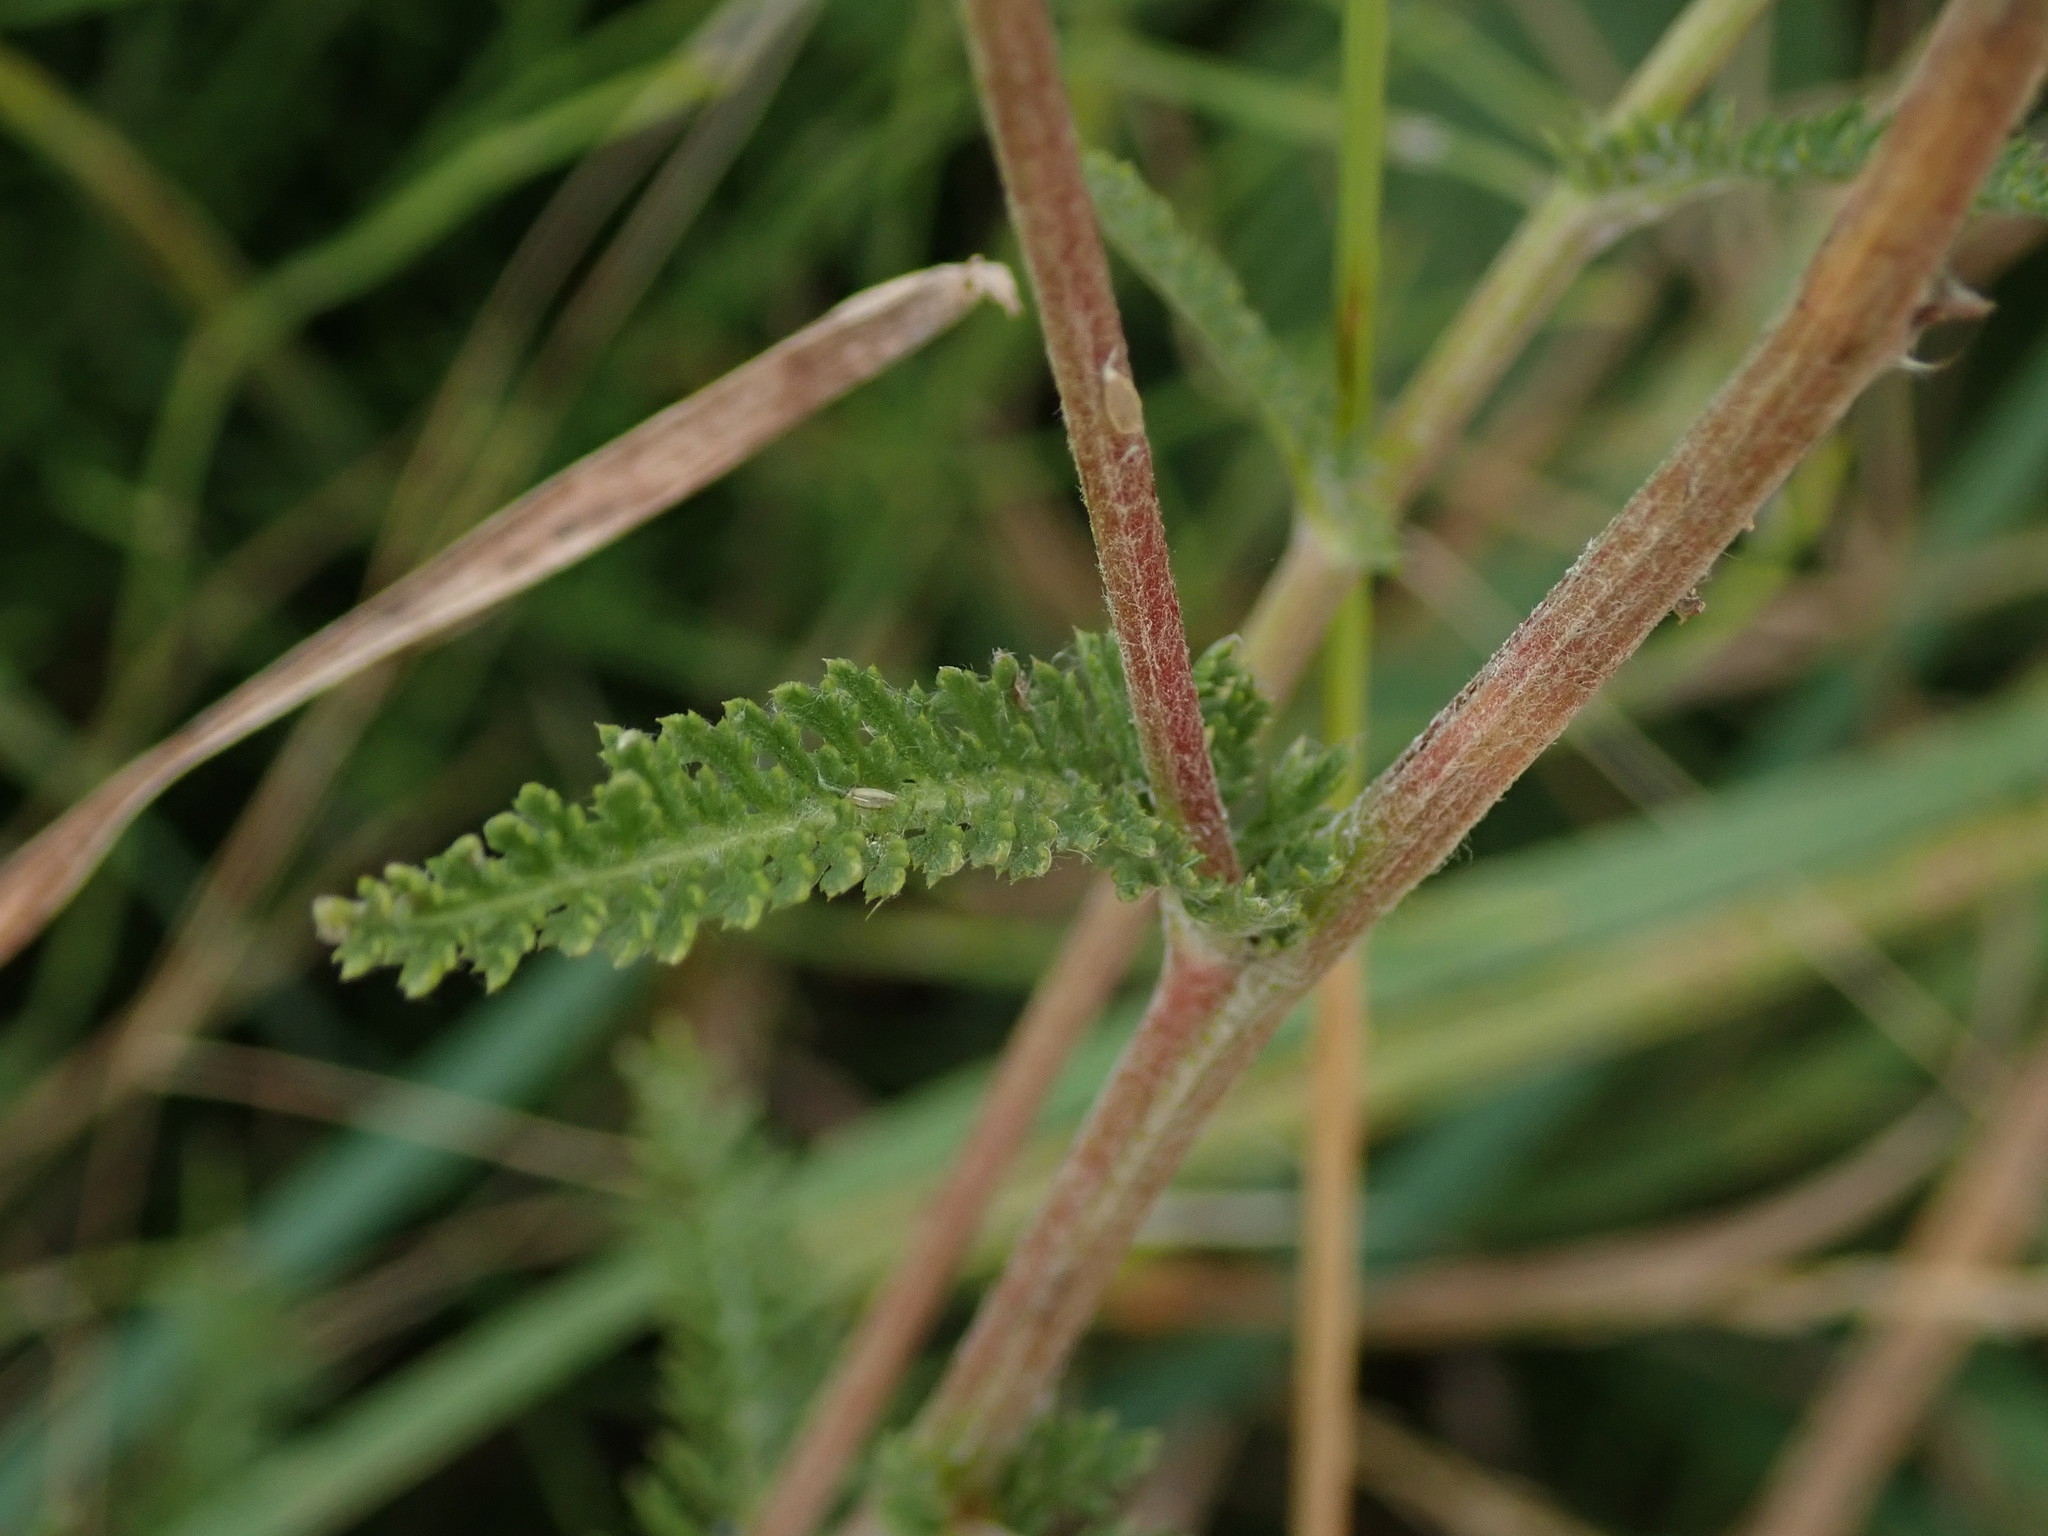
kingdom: Plantae
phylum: Tracheophyta
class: Magnoliopsida
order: Asterales
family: Asteraceae
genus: Achillea
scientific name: Achillea millefolium
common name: Yarrow
